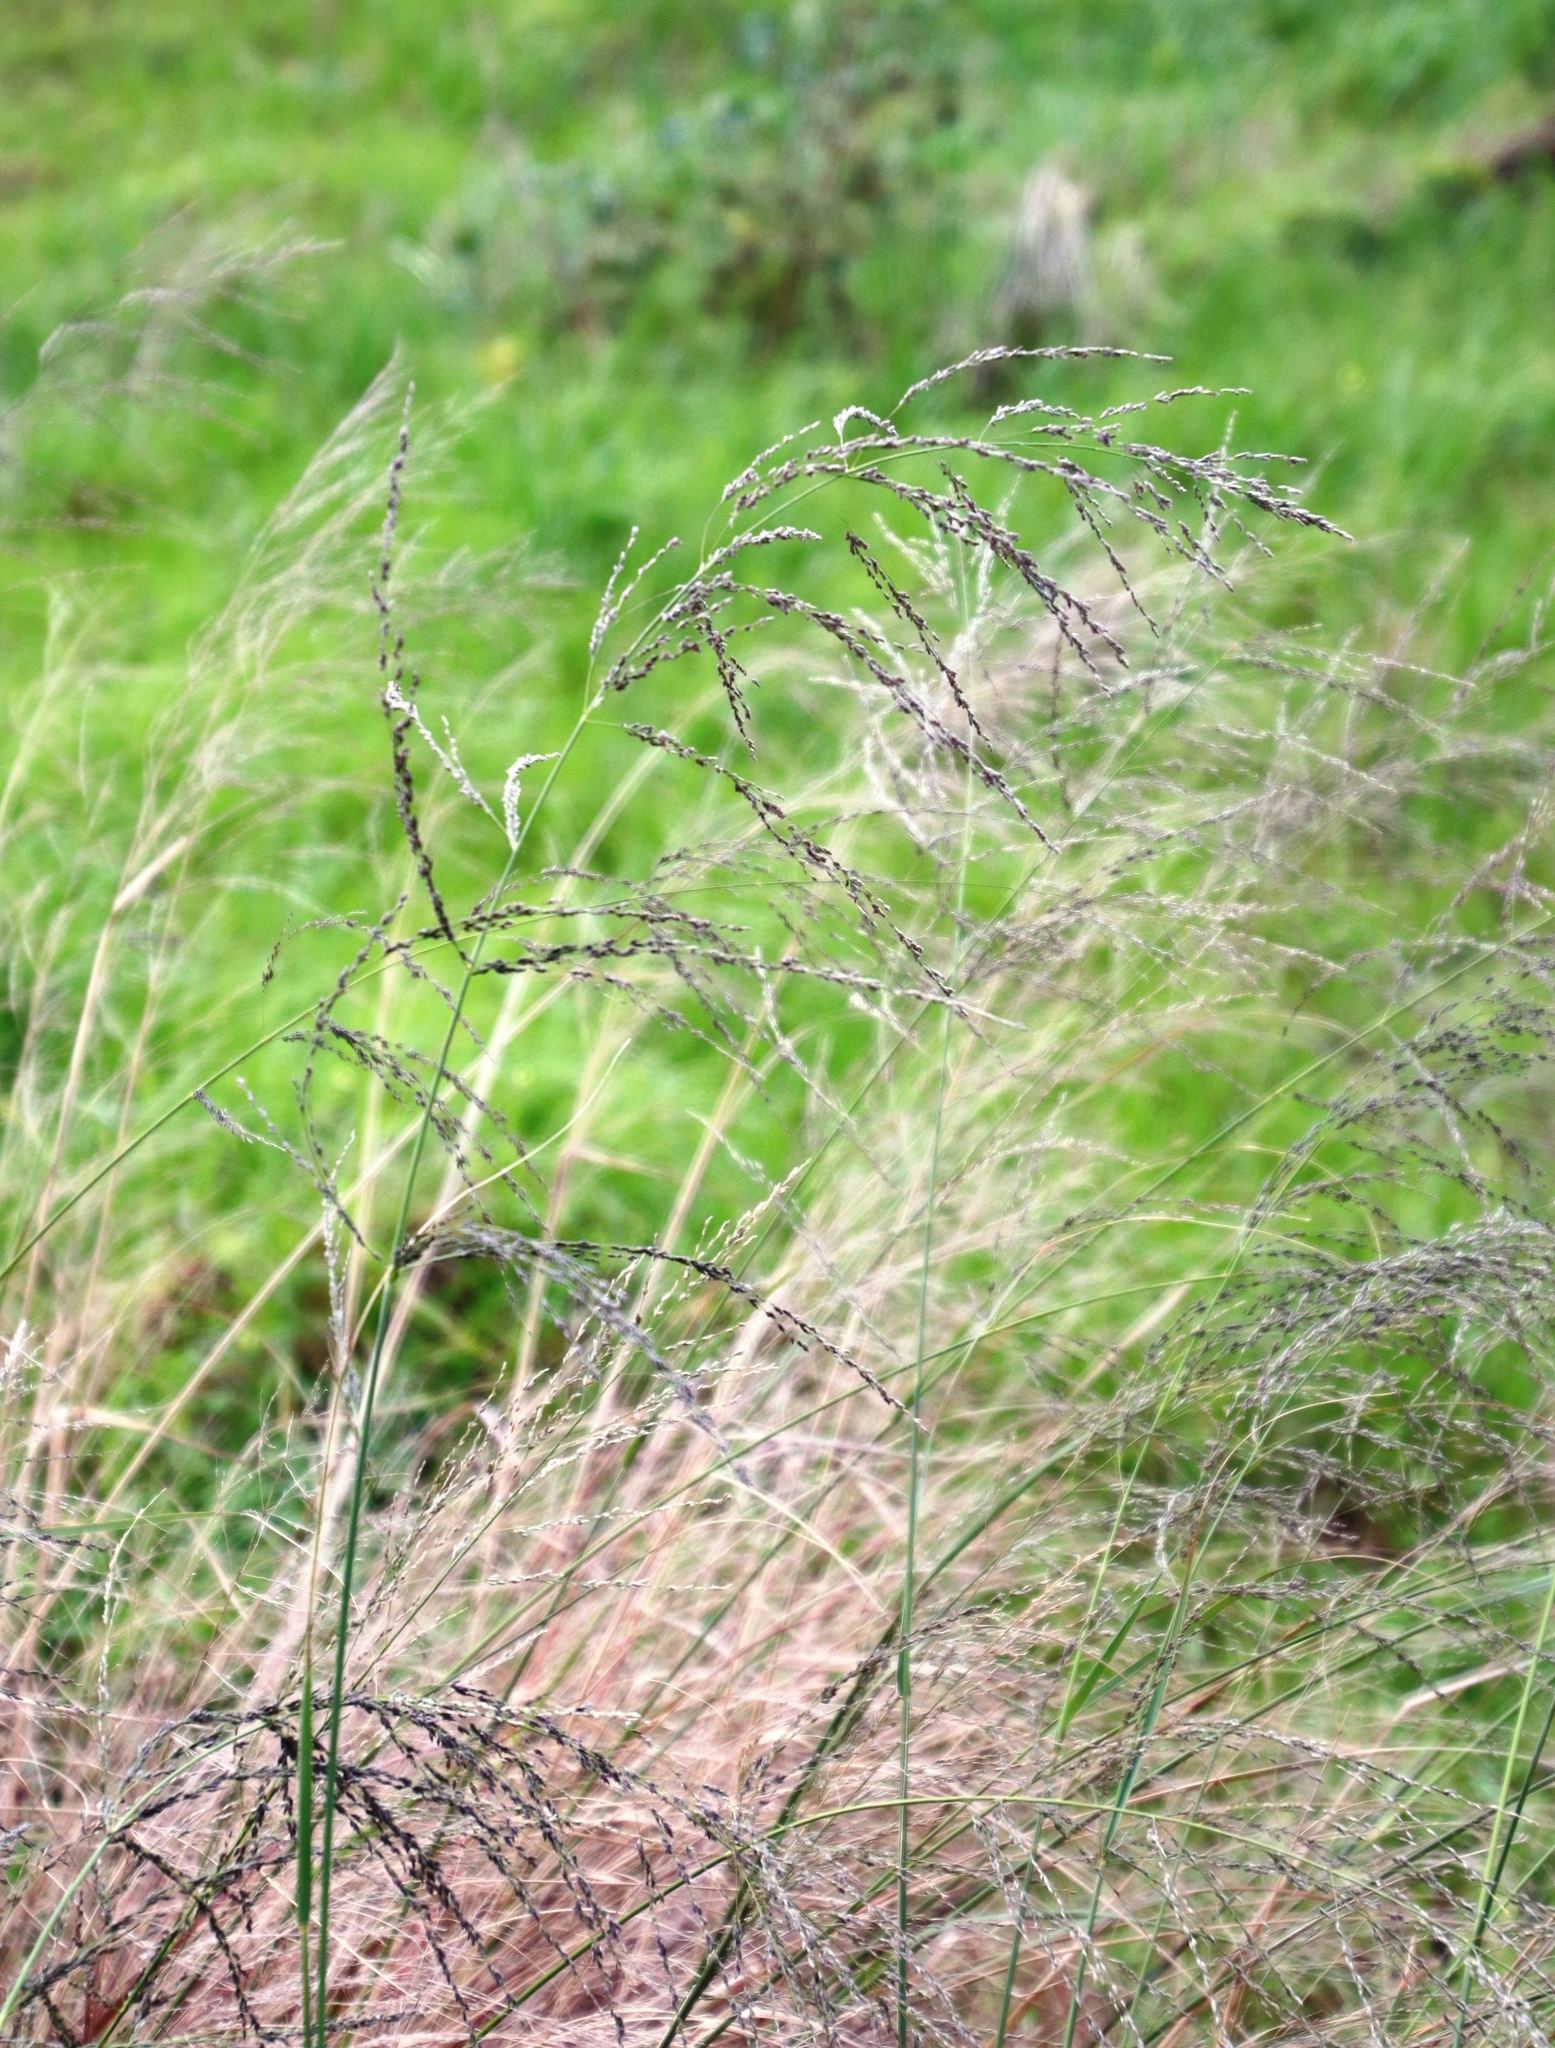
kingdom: Plantae
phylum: Tracheophyta
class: Liliopsida
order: Poales
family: Poaceae
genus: Eragrostis
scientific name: Eragrostis curvula
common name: African love-grass
